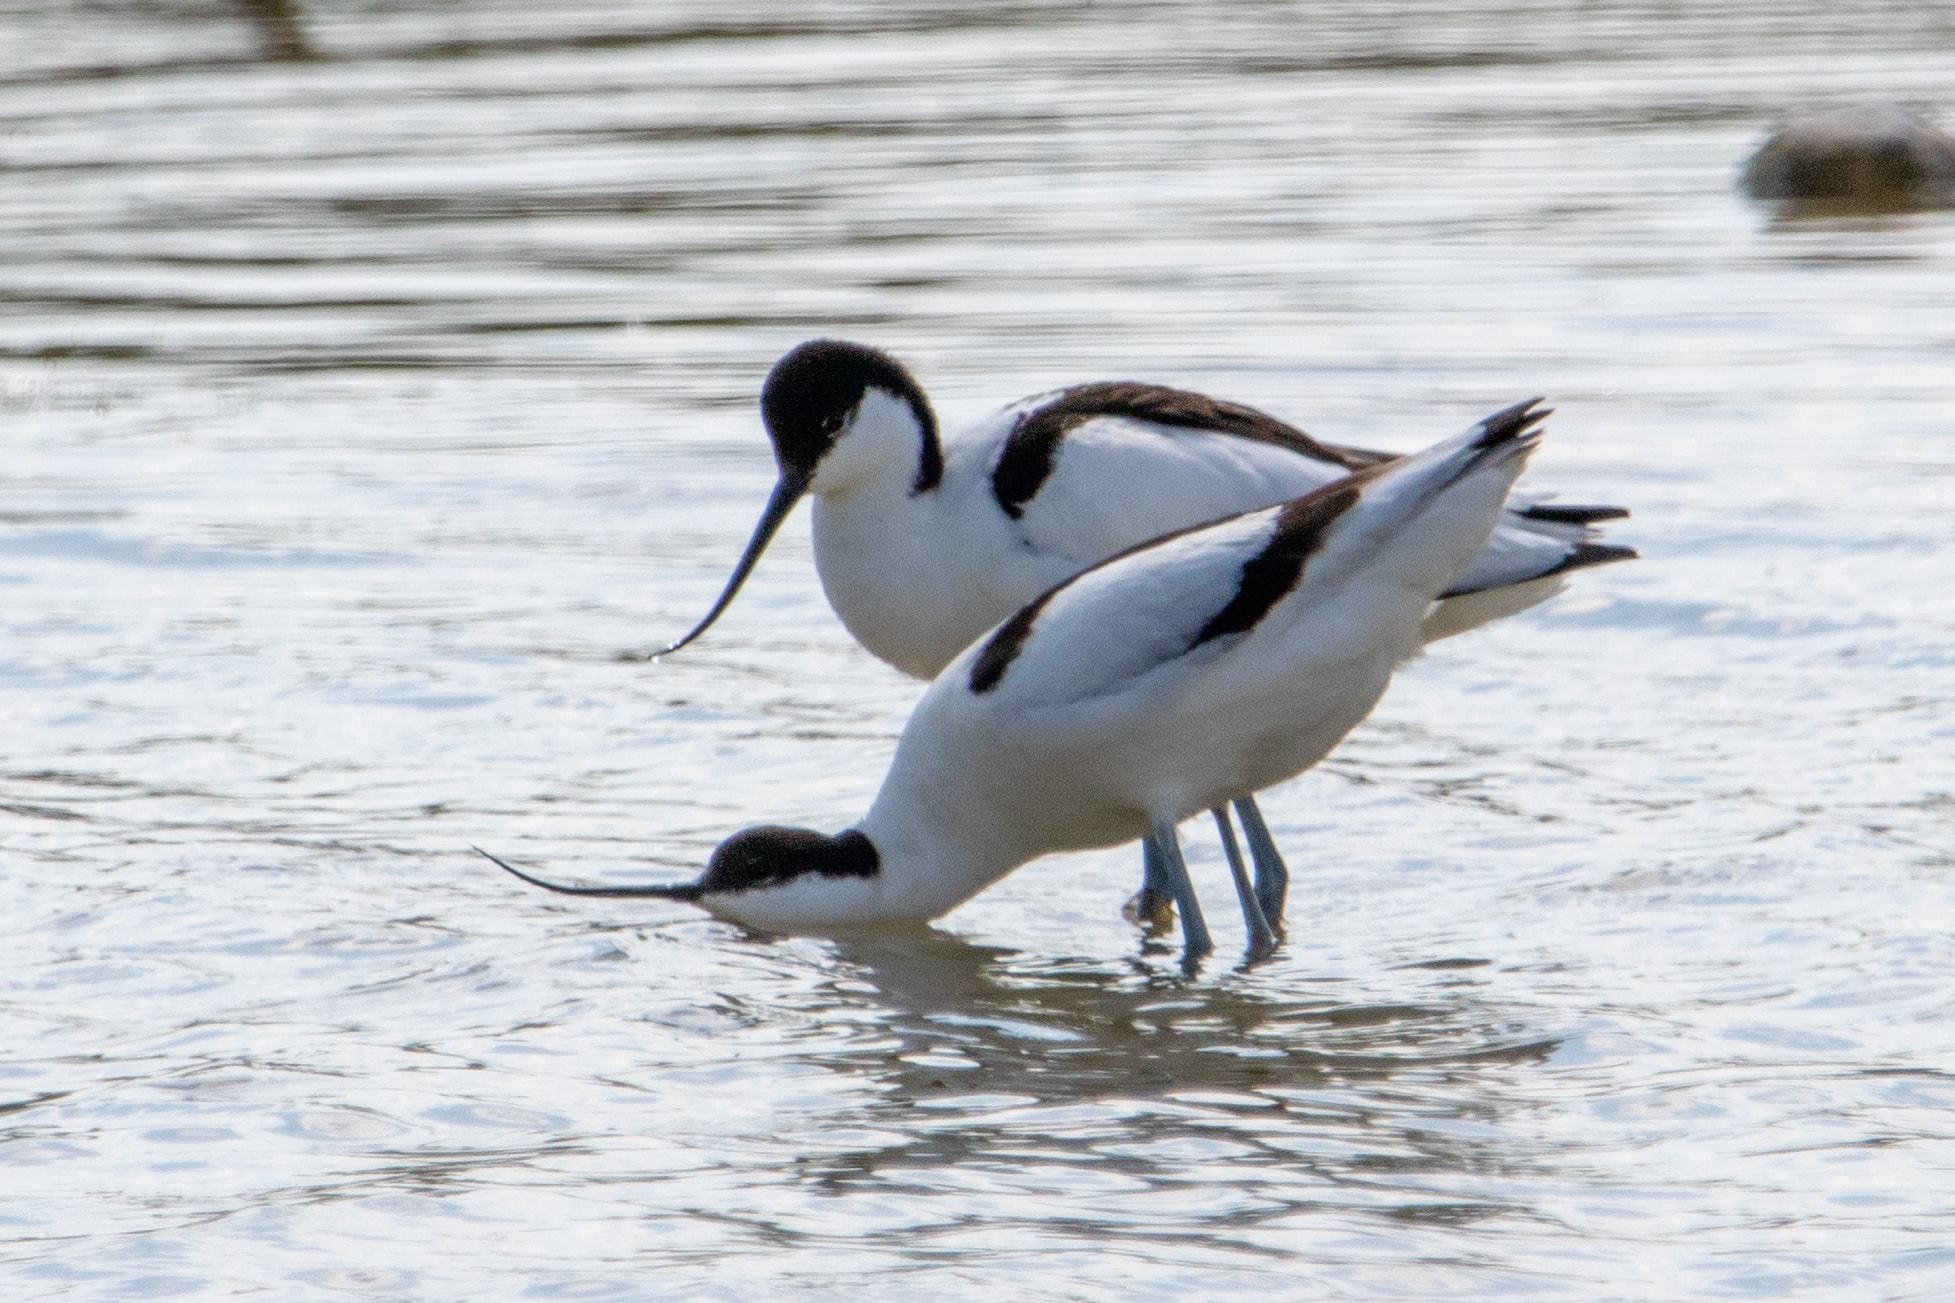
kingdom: Animalia
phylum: Chordata
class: Aves
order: Charadriiformes
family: Recurvirostridae
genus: Recurvirostra
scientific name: Recurvirostra avosetta
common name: Pied avocet
